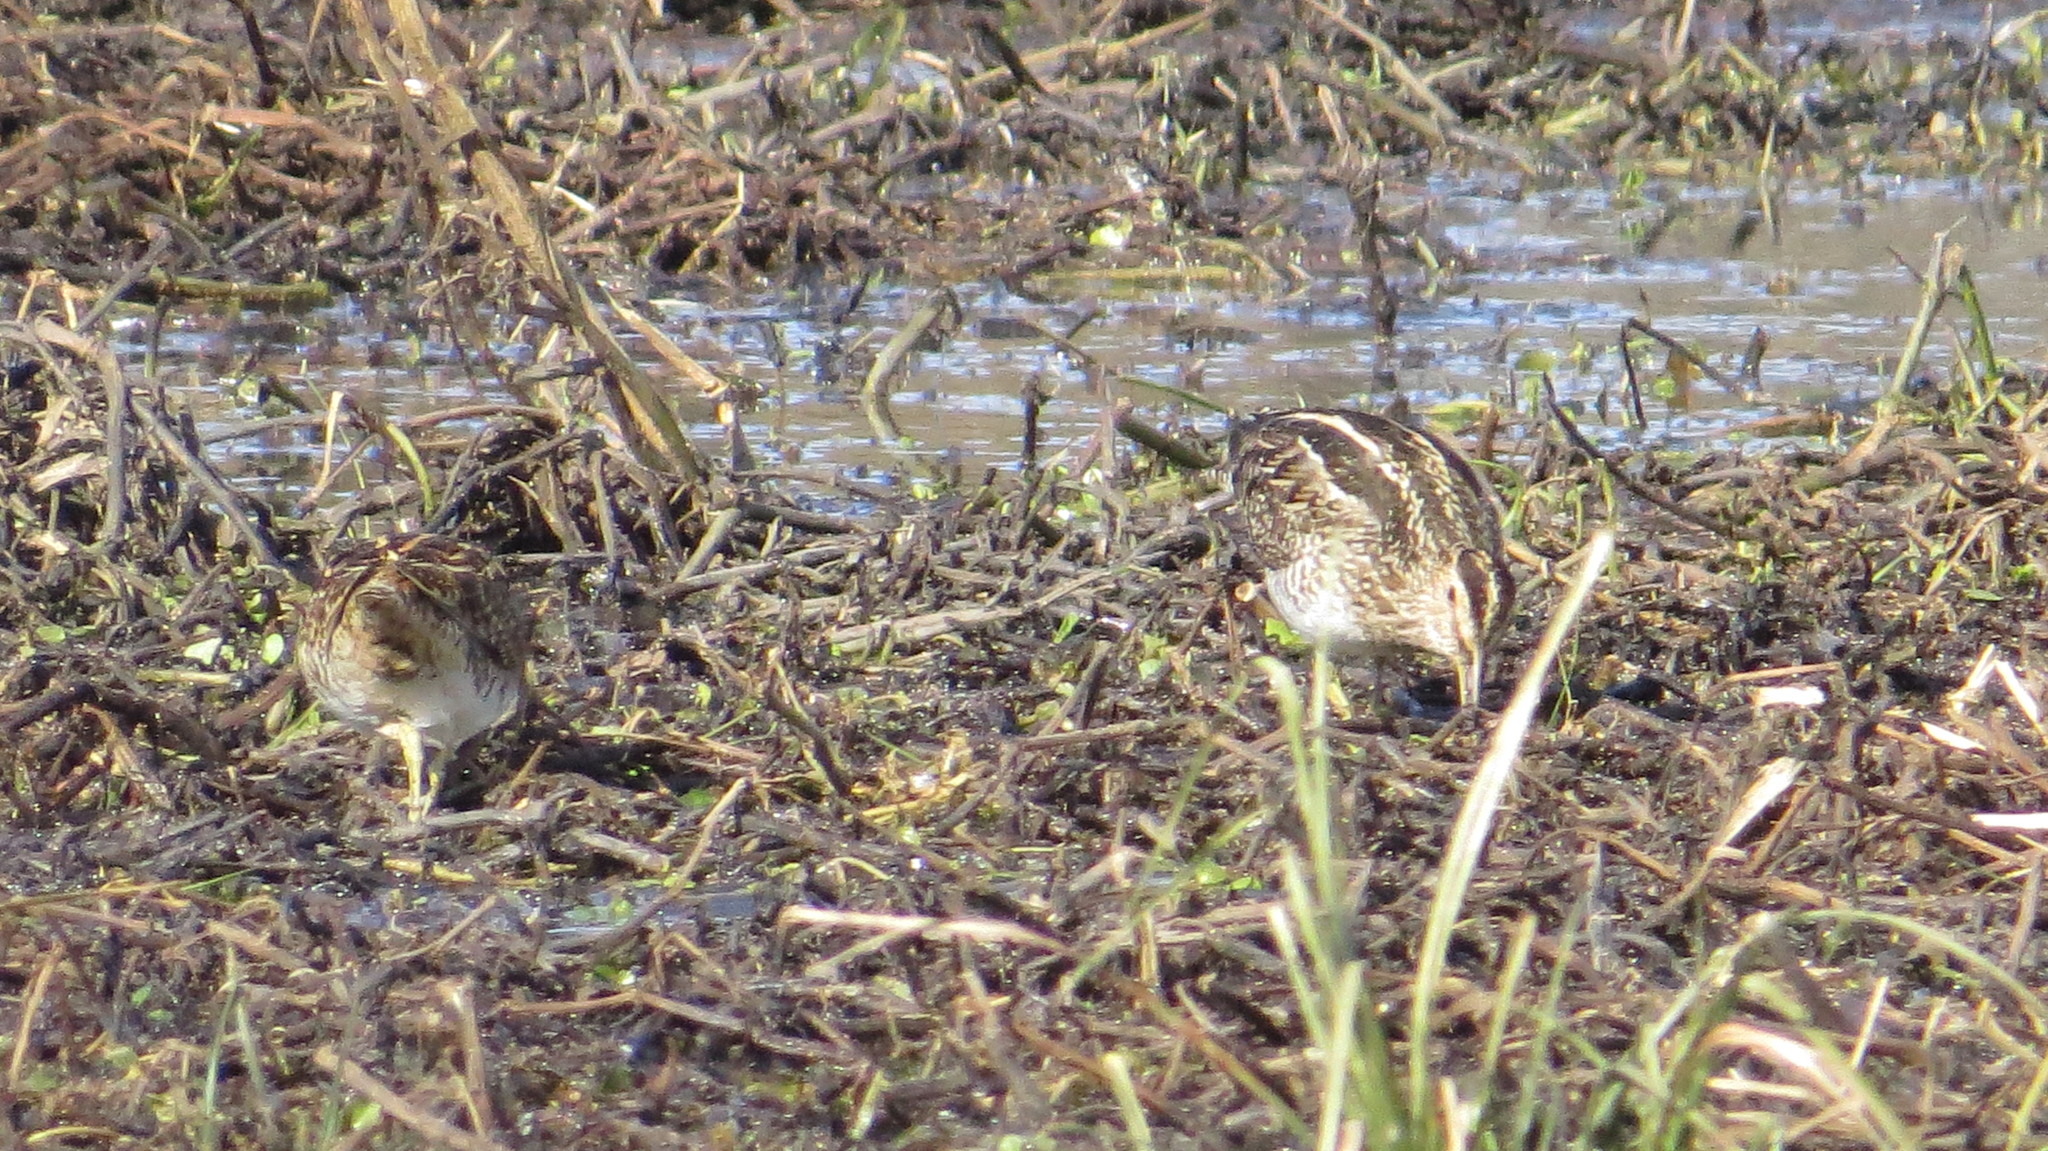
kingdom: Animalia
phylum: Chordata
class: Aves
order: Charadriiformes
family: Scolopacidae
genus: Gallinago
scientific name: Gallinago paraguaiae
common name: South american snipe
